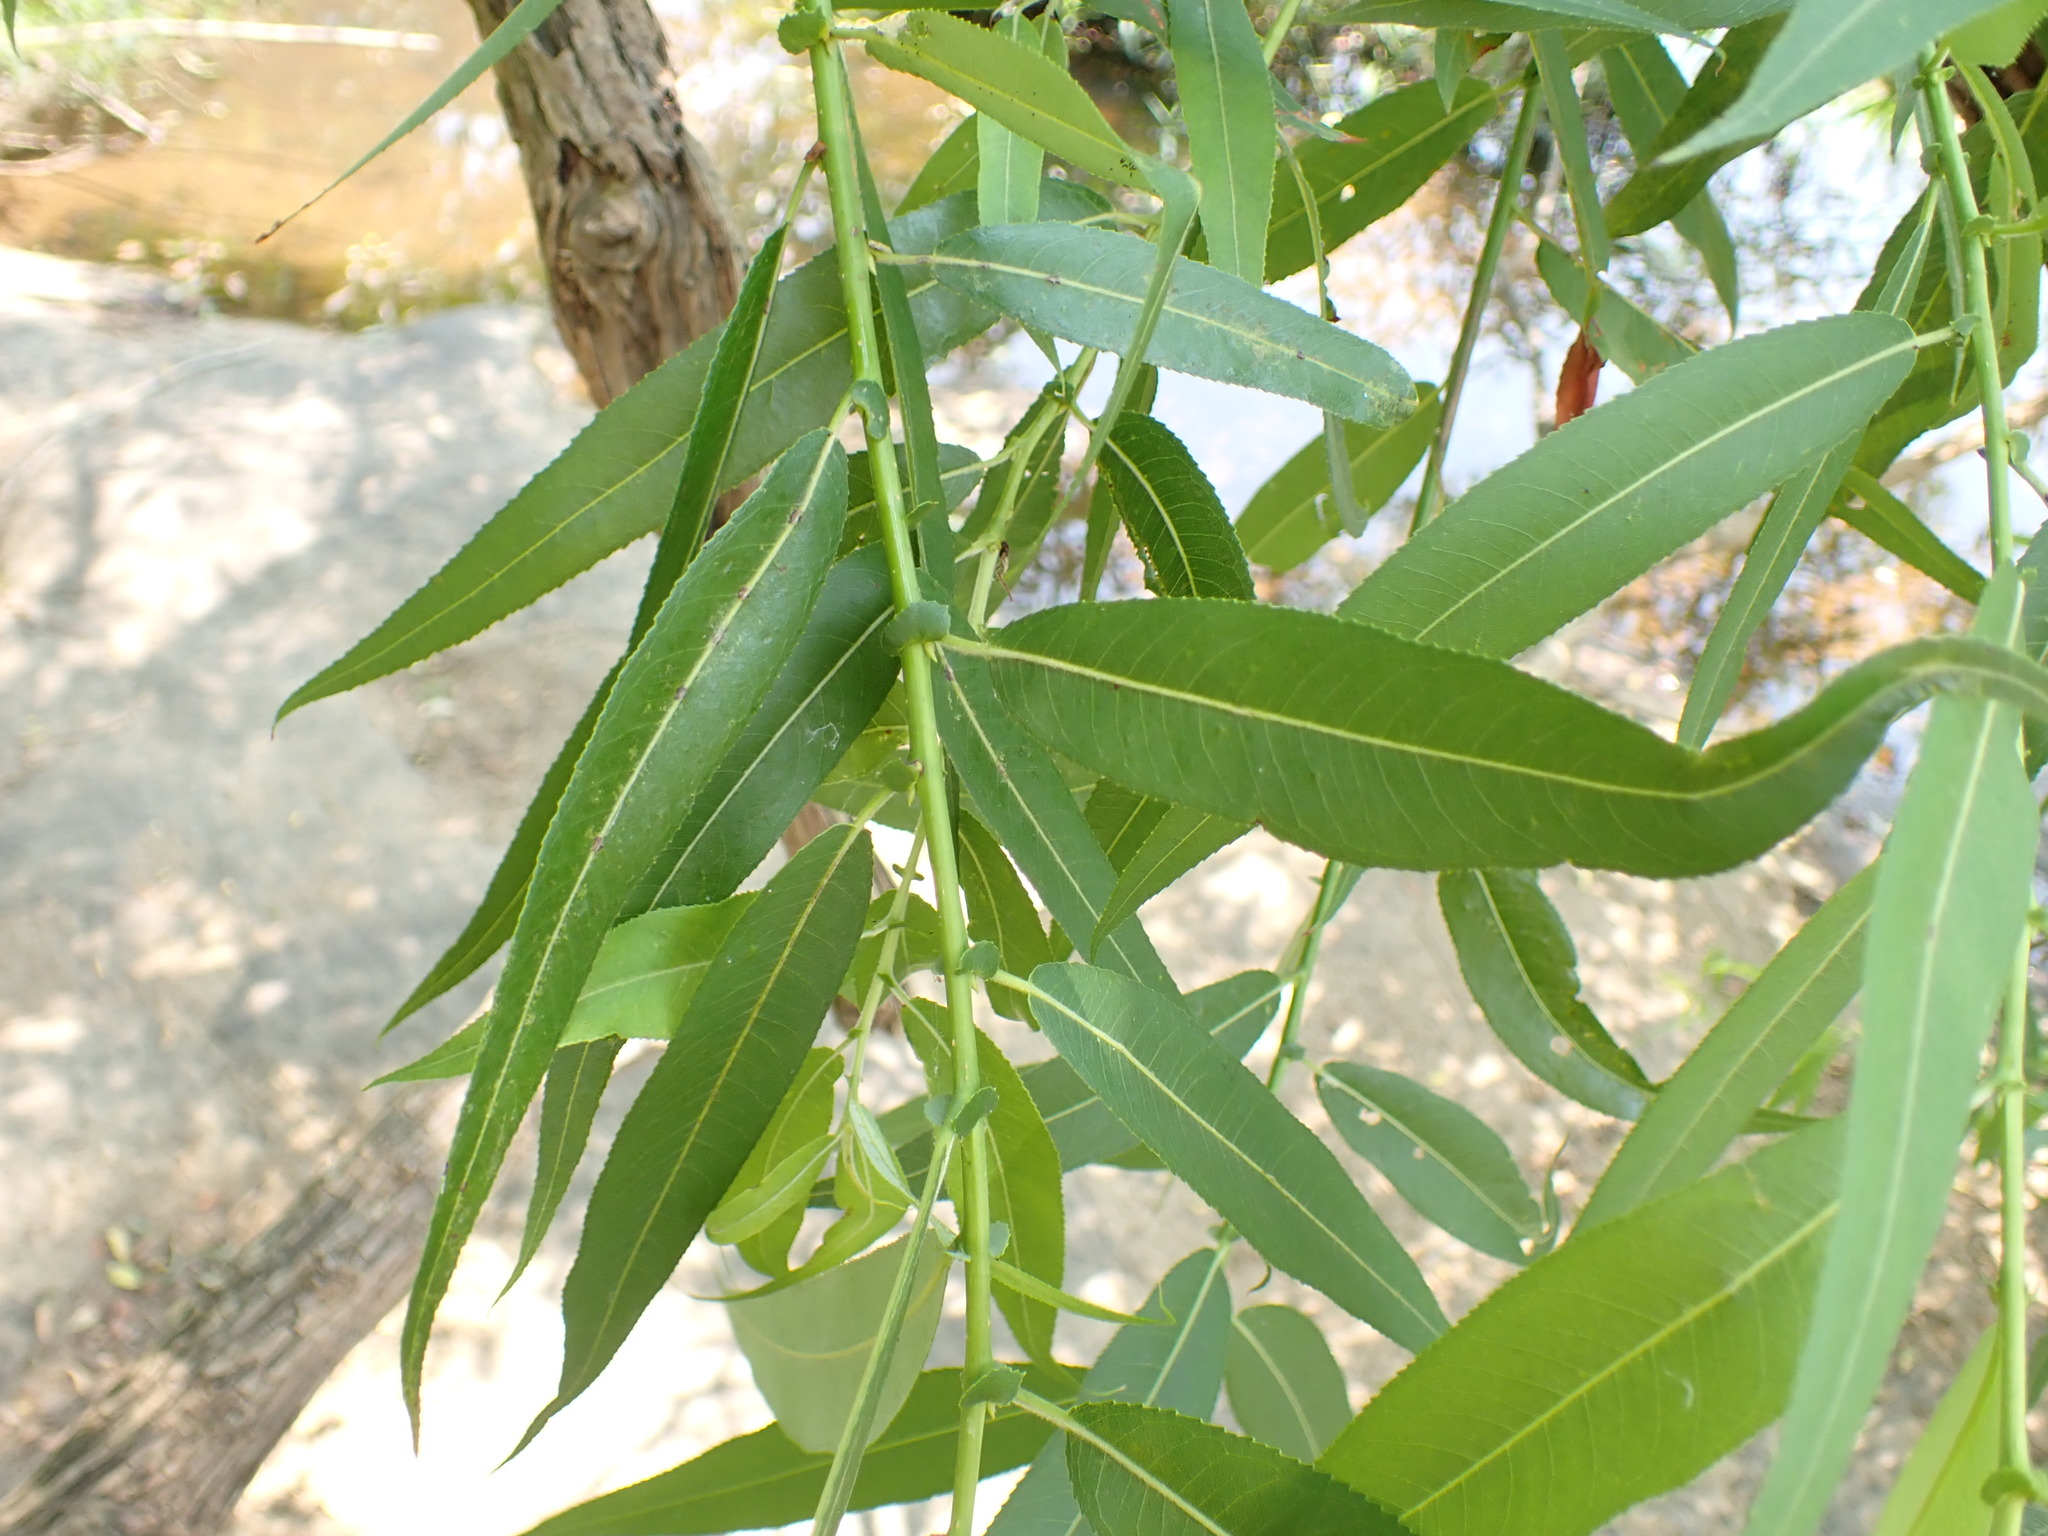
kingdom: Plantae
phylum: Tracheophyta
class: Magnoliopsida
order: Malpighiales
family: Salicaceae
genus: Salix
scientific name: Salix nigra
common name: Black willow
